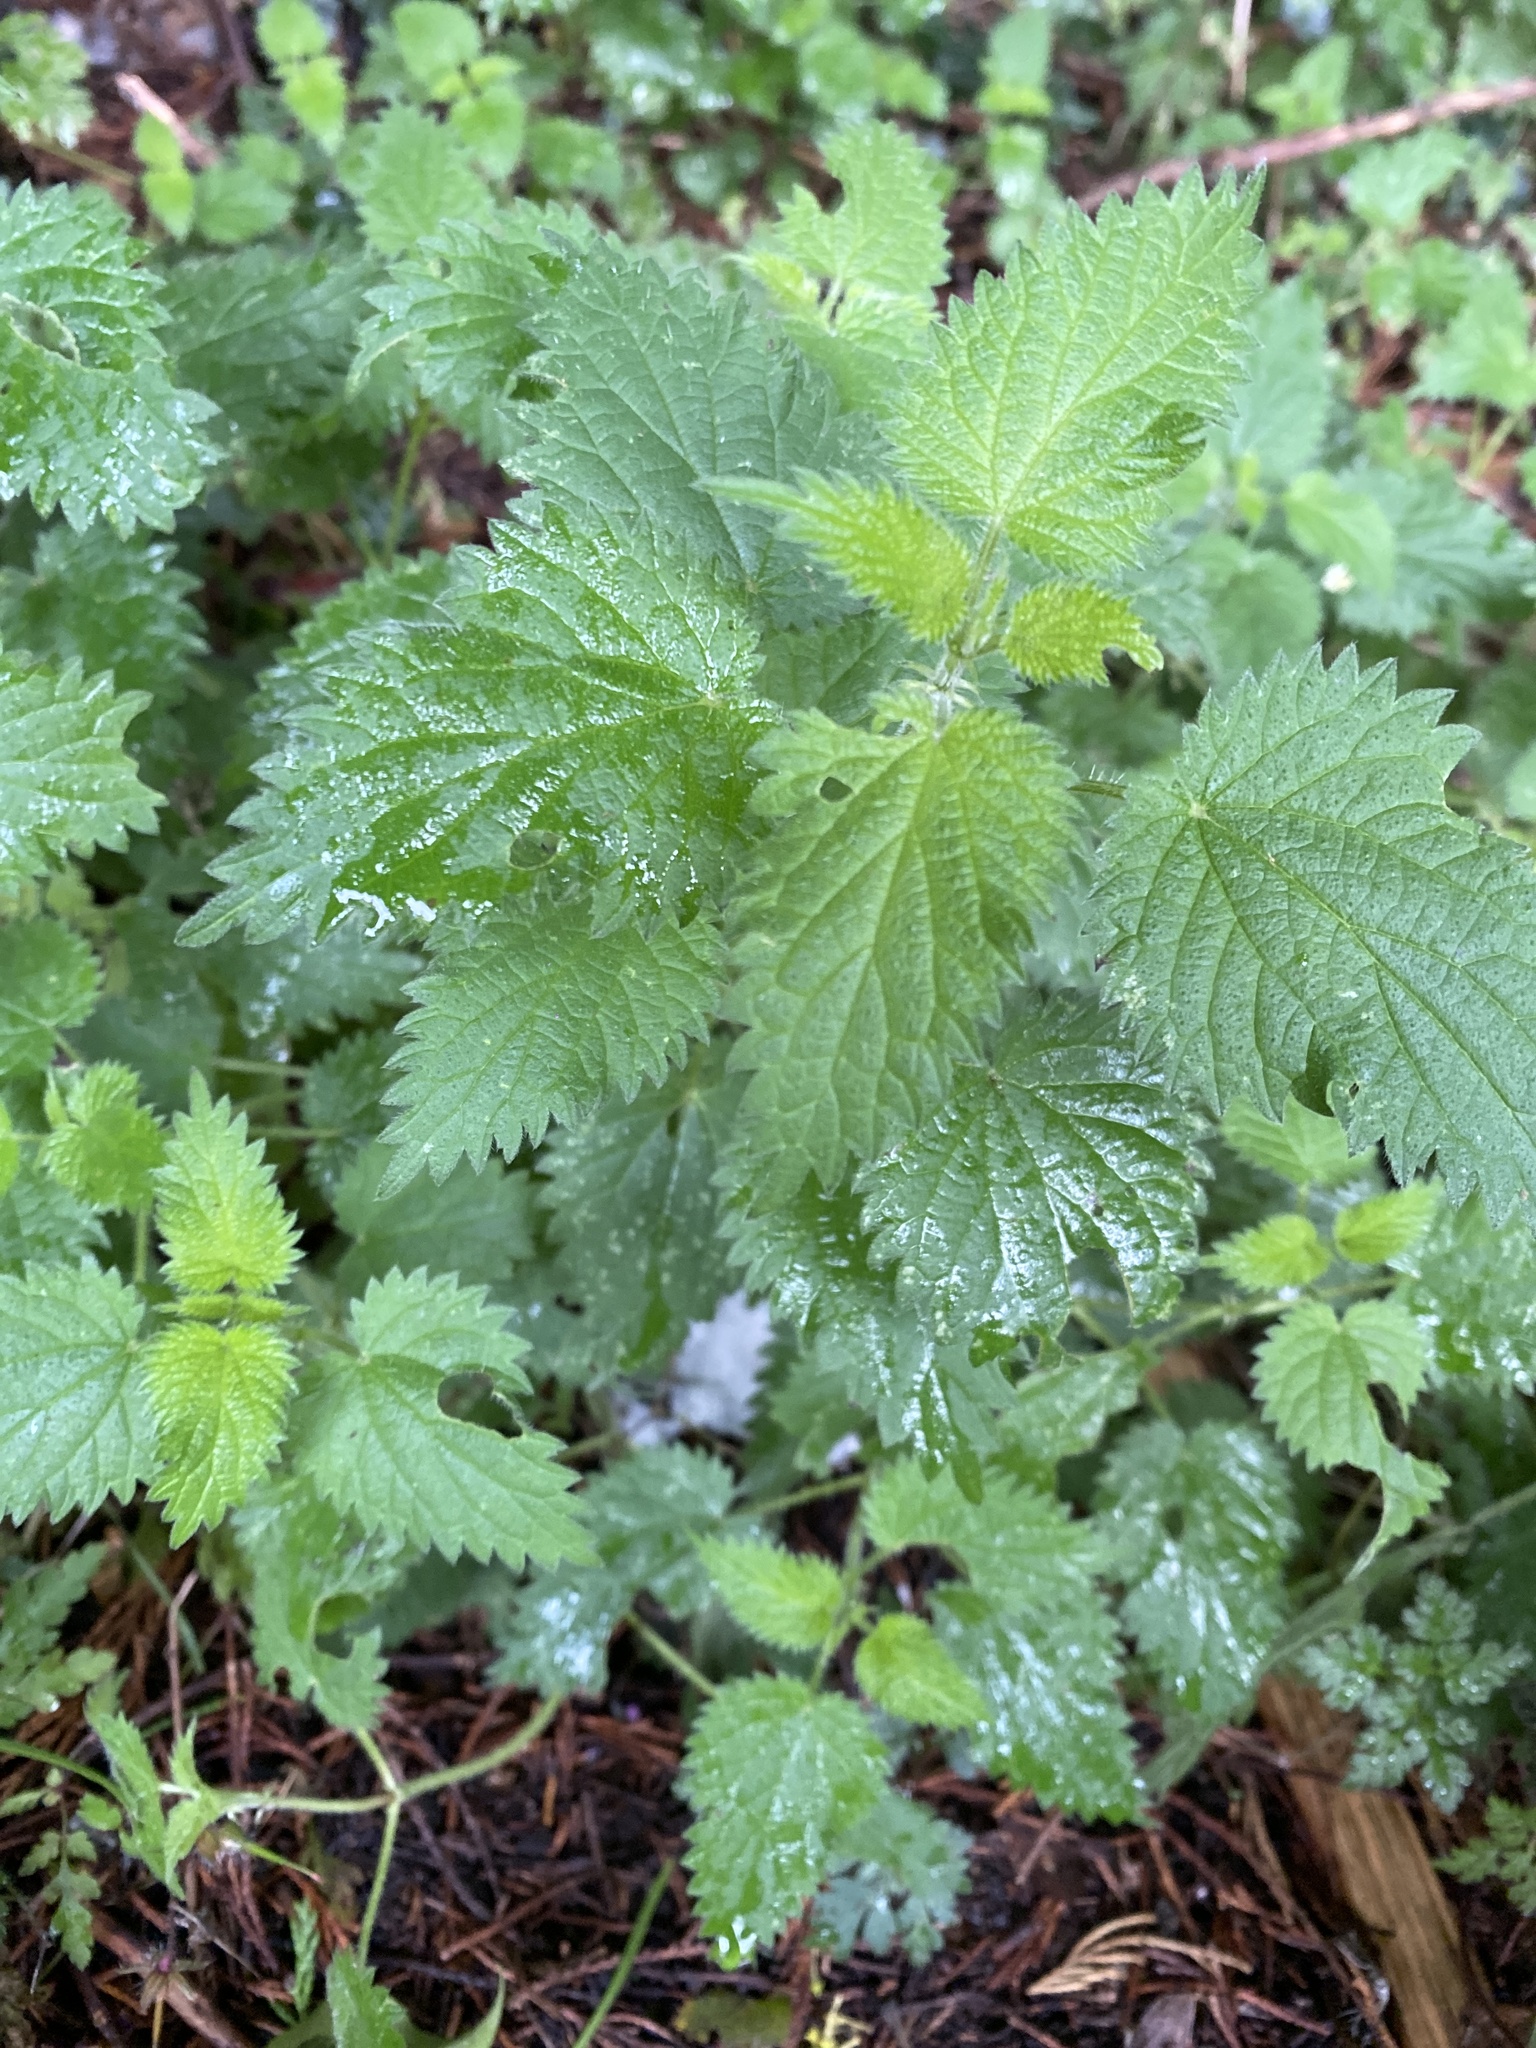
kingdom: Plantae
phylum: Tracheophyta
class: Magnoliopsida
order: Rosales
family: Urticaceae
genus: Urtica
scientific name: Urtica dioica
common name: Common nettle
